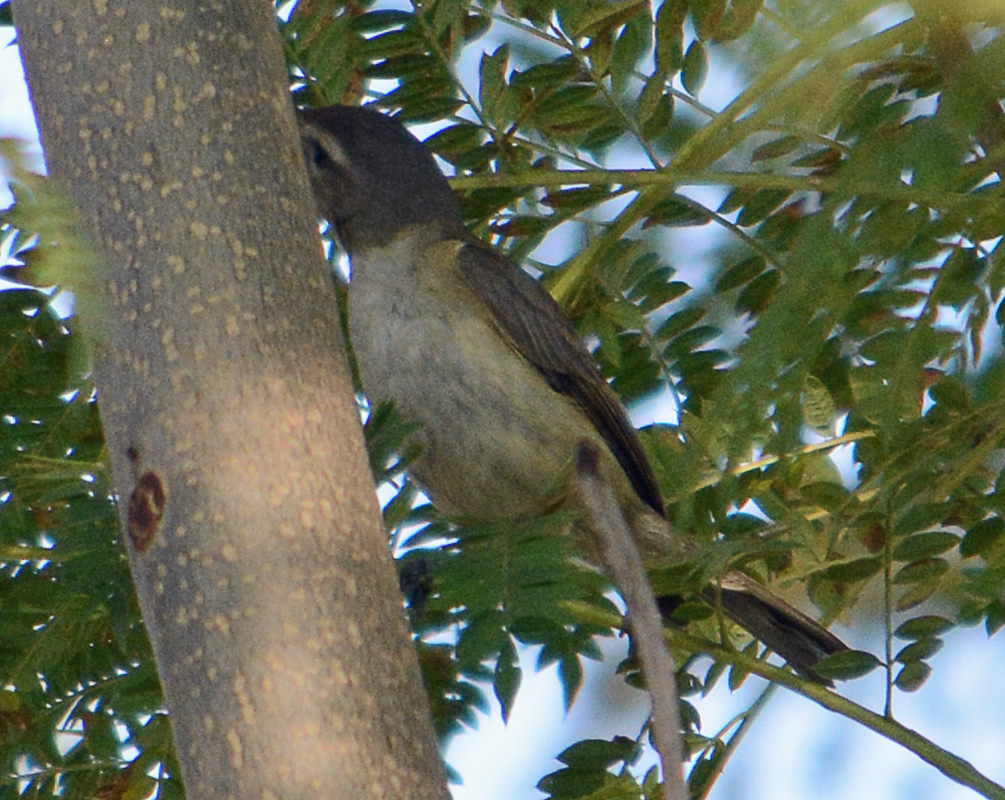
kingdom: Animalia
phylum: Chordata
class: Aves
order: Passeriformes
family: Vireonidae
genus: Vireo
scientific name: Vireo gilvus
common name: Warbling vireo
